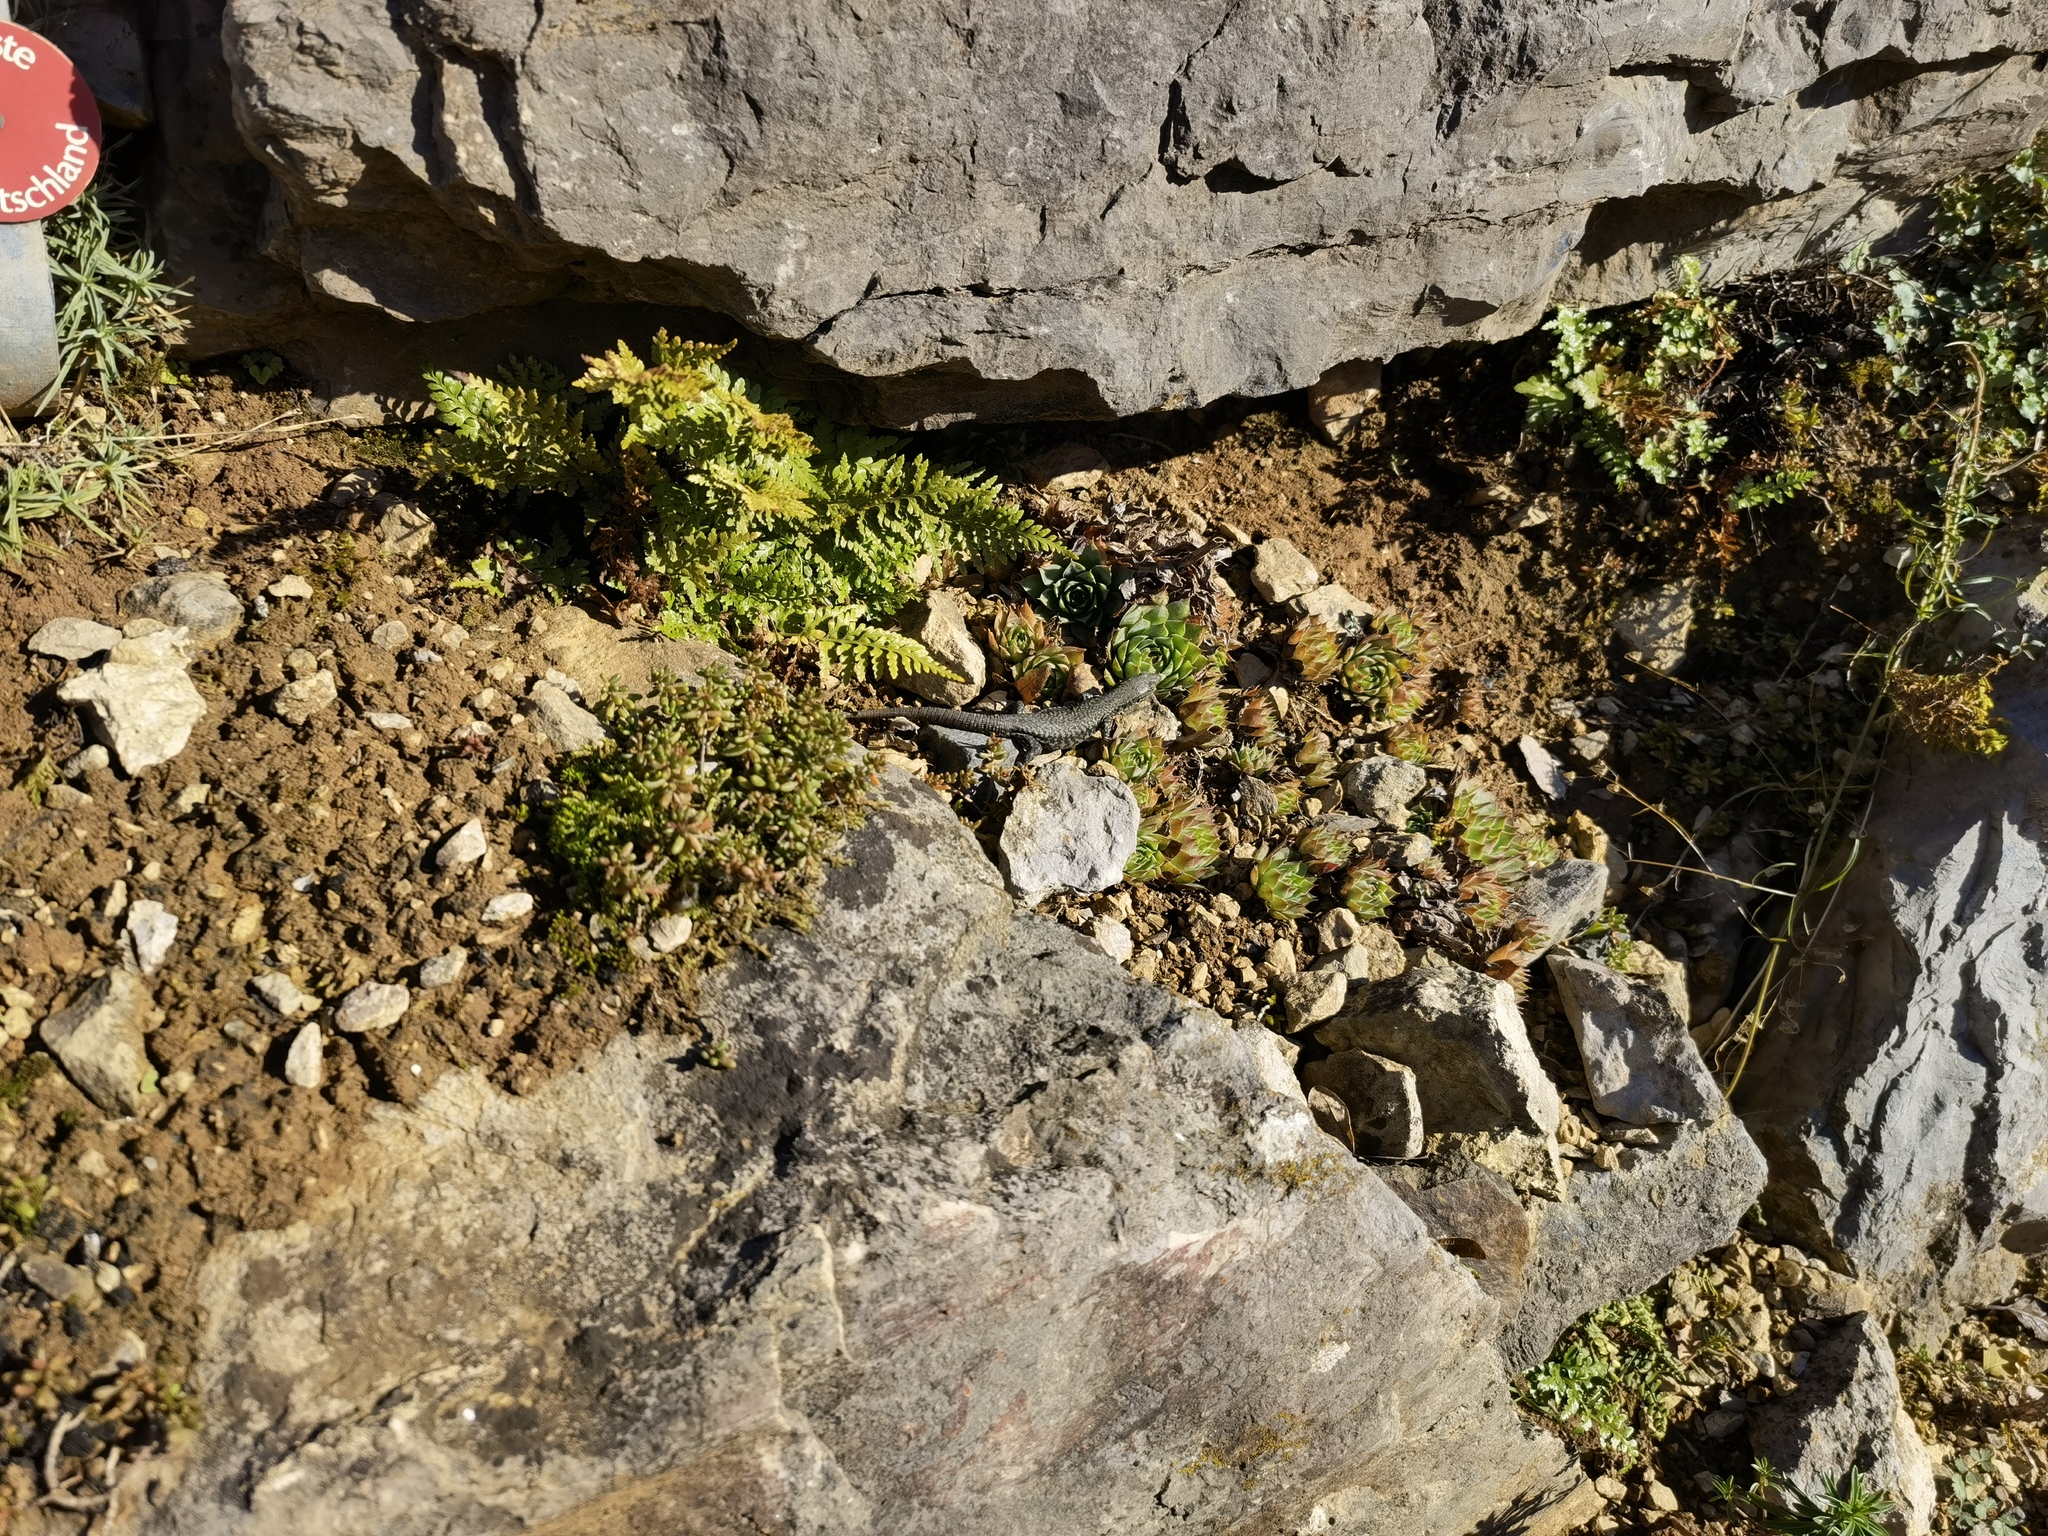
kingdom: Animalia
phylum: Chordata
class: Squamata
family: Lacertidae
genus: Podarcis
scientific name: Podarcis muralis
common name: Common wall lizard
